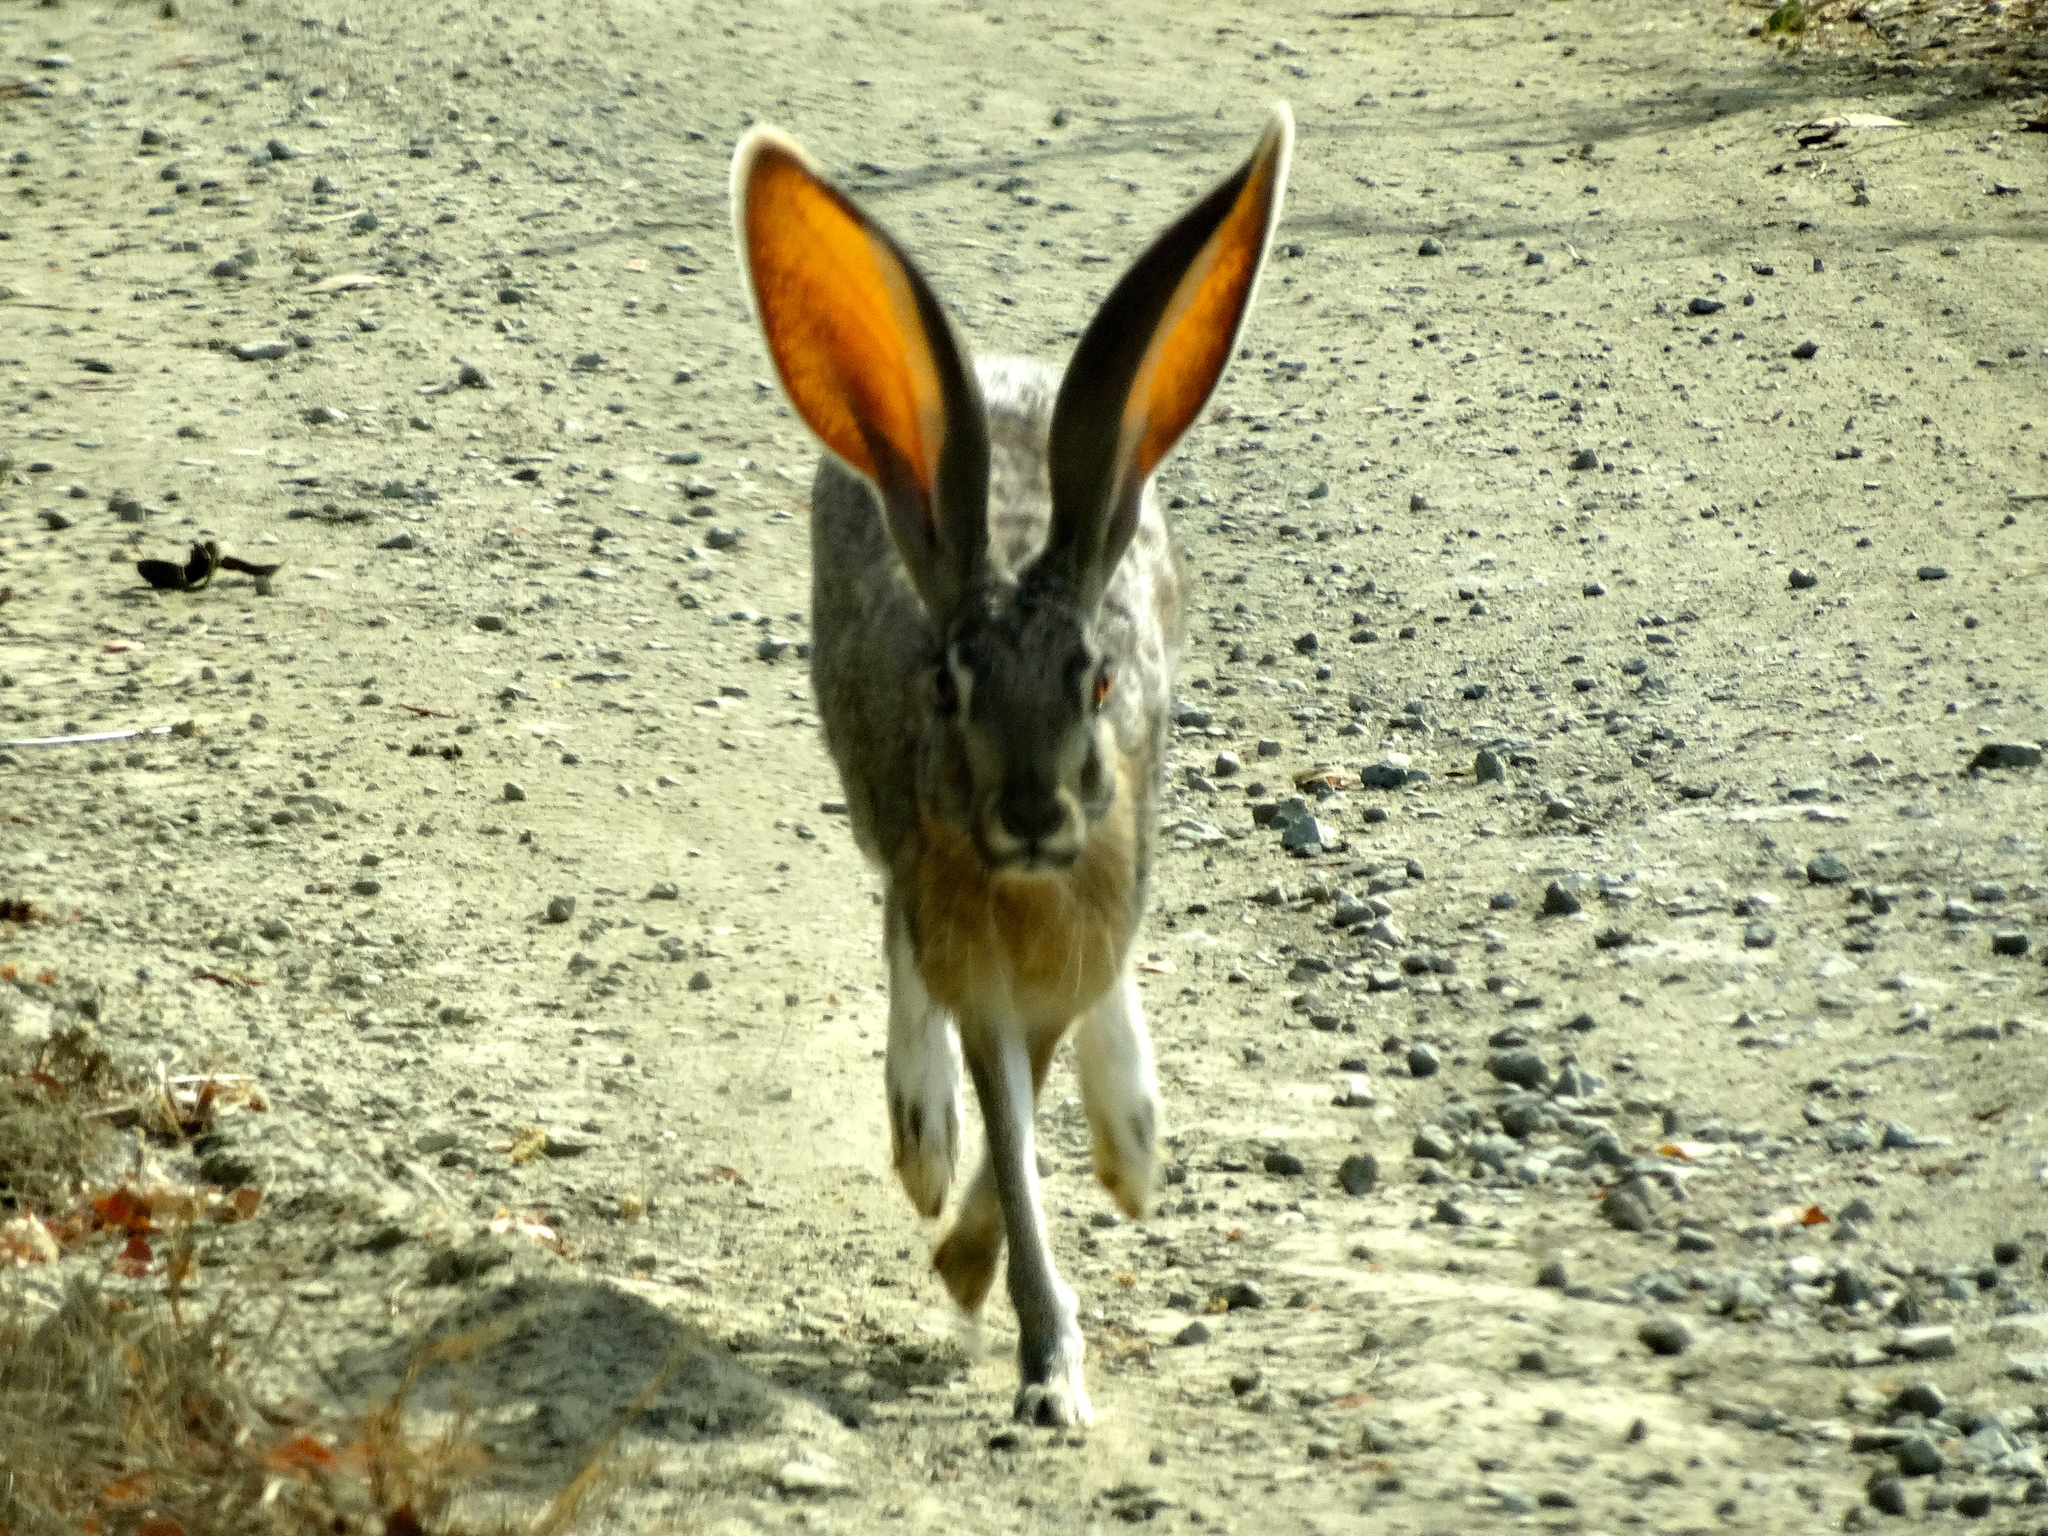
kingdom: Animalia
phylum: Chordata
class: Mammalia
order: Lagomorpha
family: Leporidae
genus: Lepus
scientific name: Lepus alleni
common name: Antelope jackrabbit
